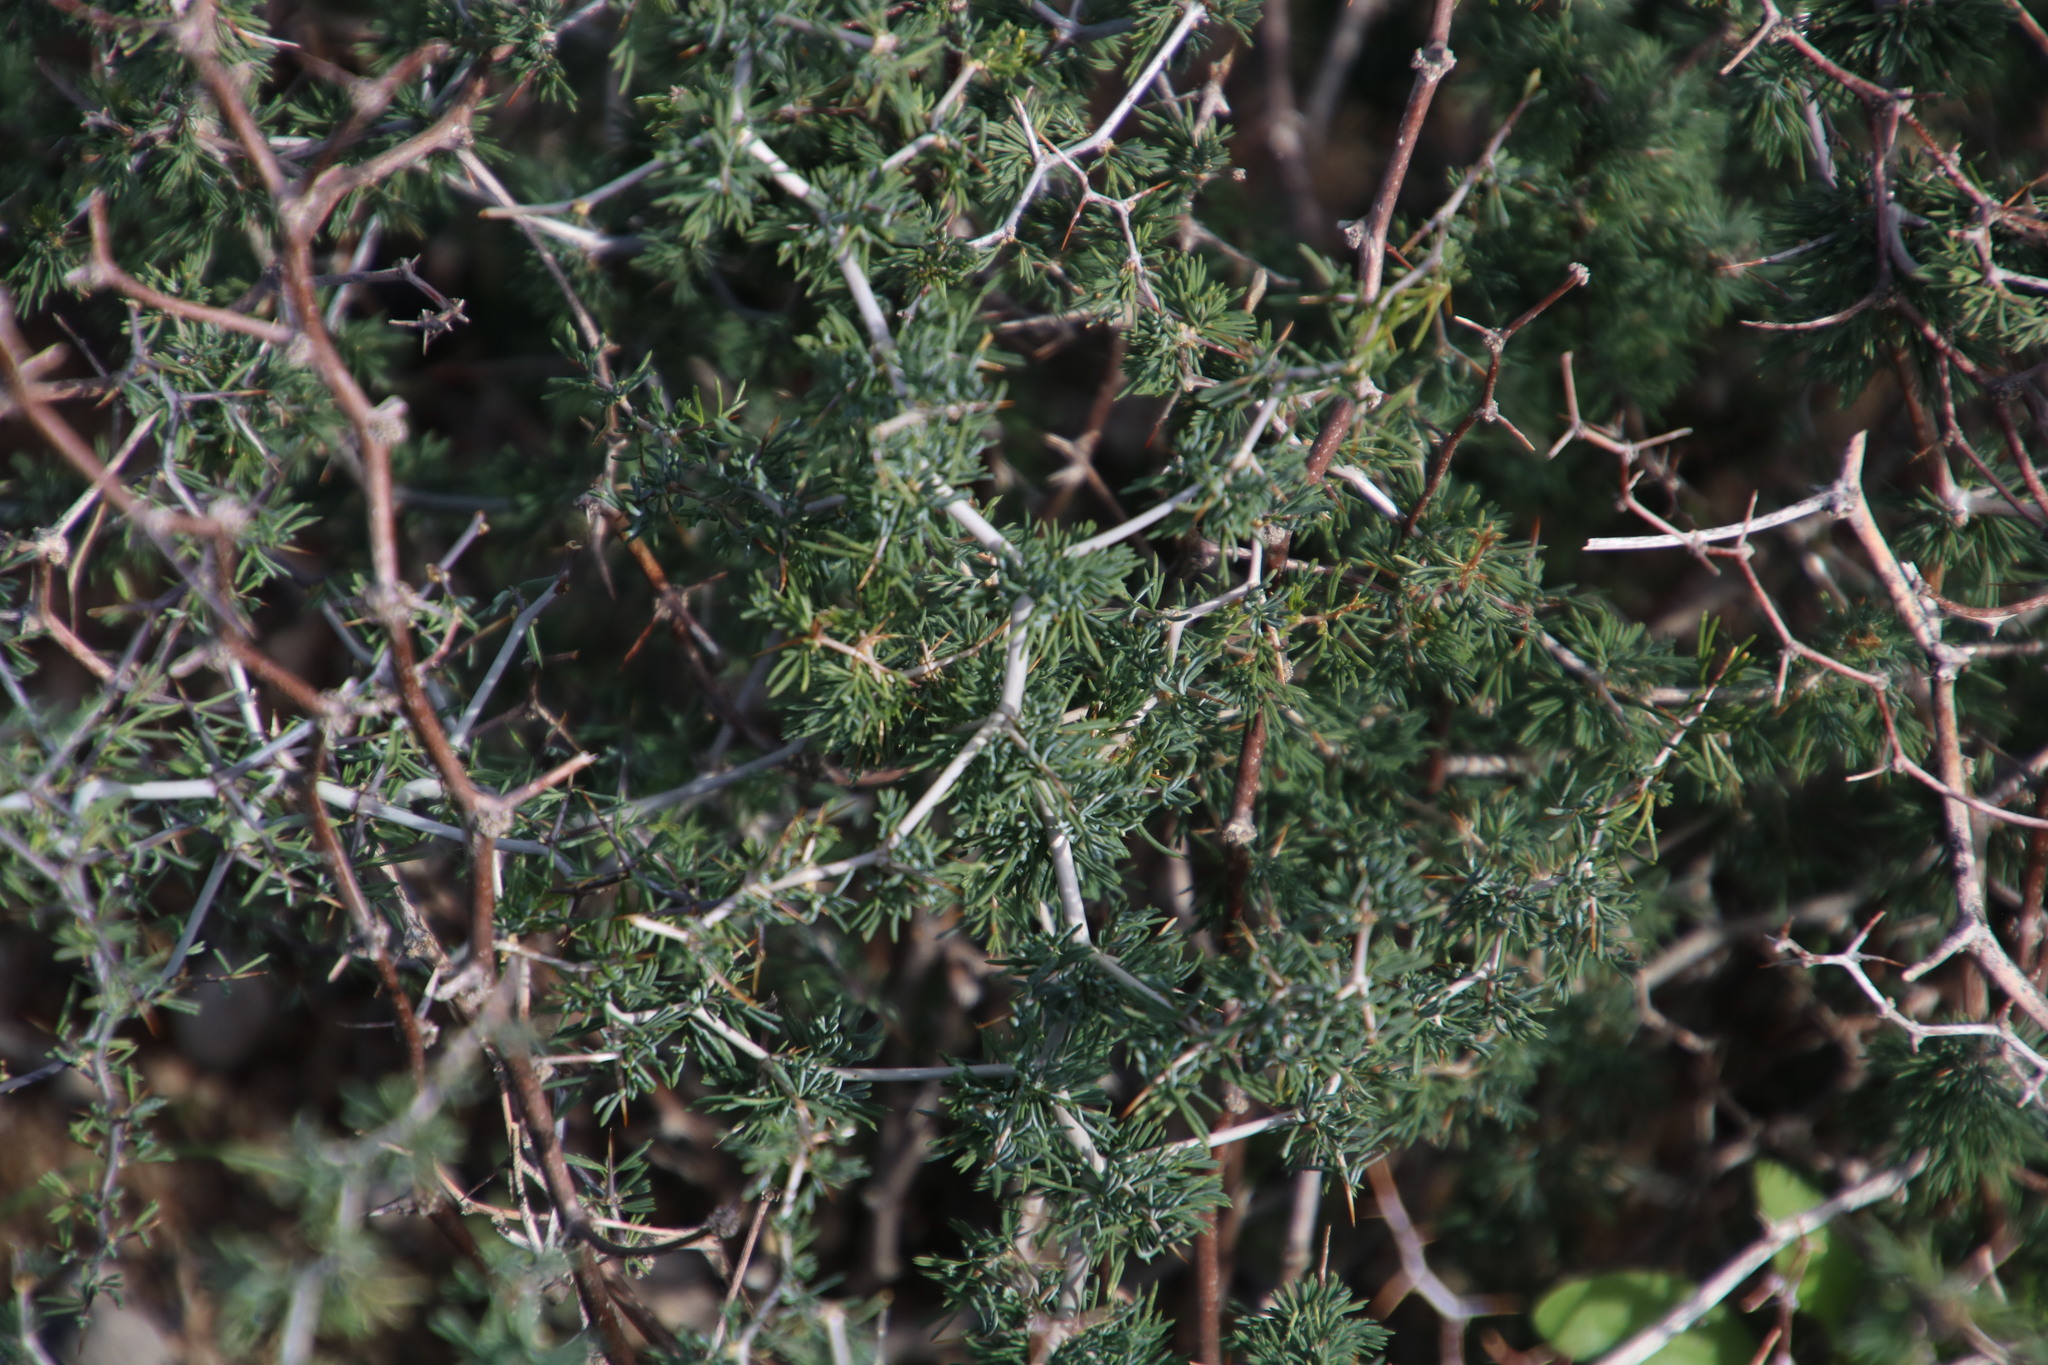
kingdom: Plantae
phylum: Tracheophyta
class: Liliopsida
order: Asparagales
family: Asparagaceae
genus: Asparagus
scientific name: Asparagus suaveolens
